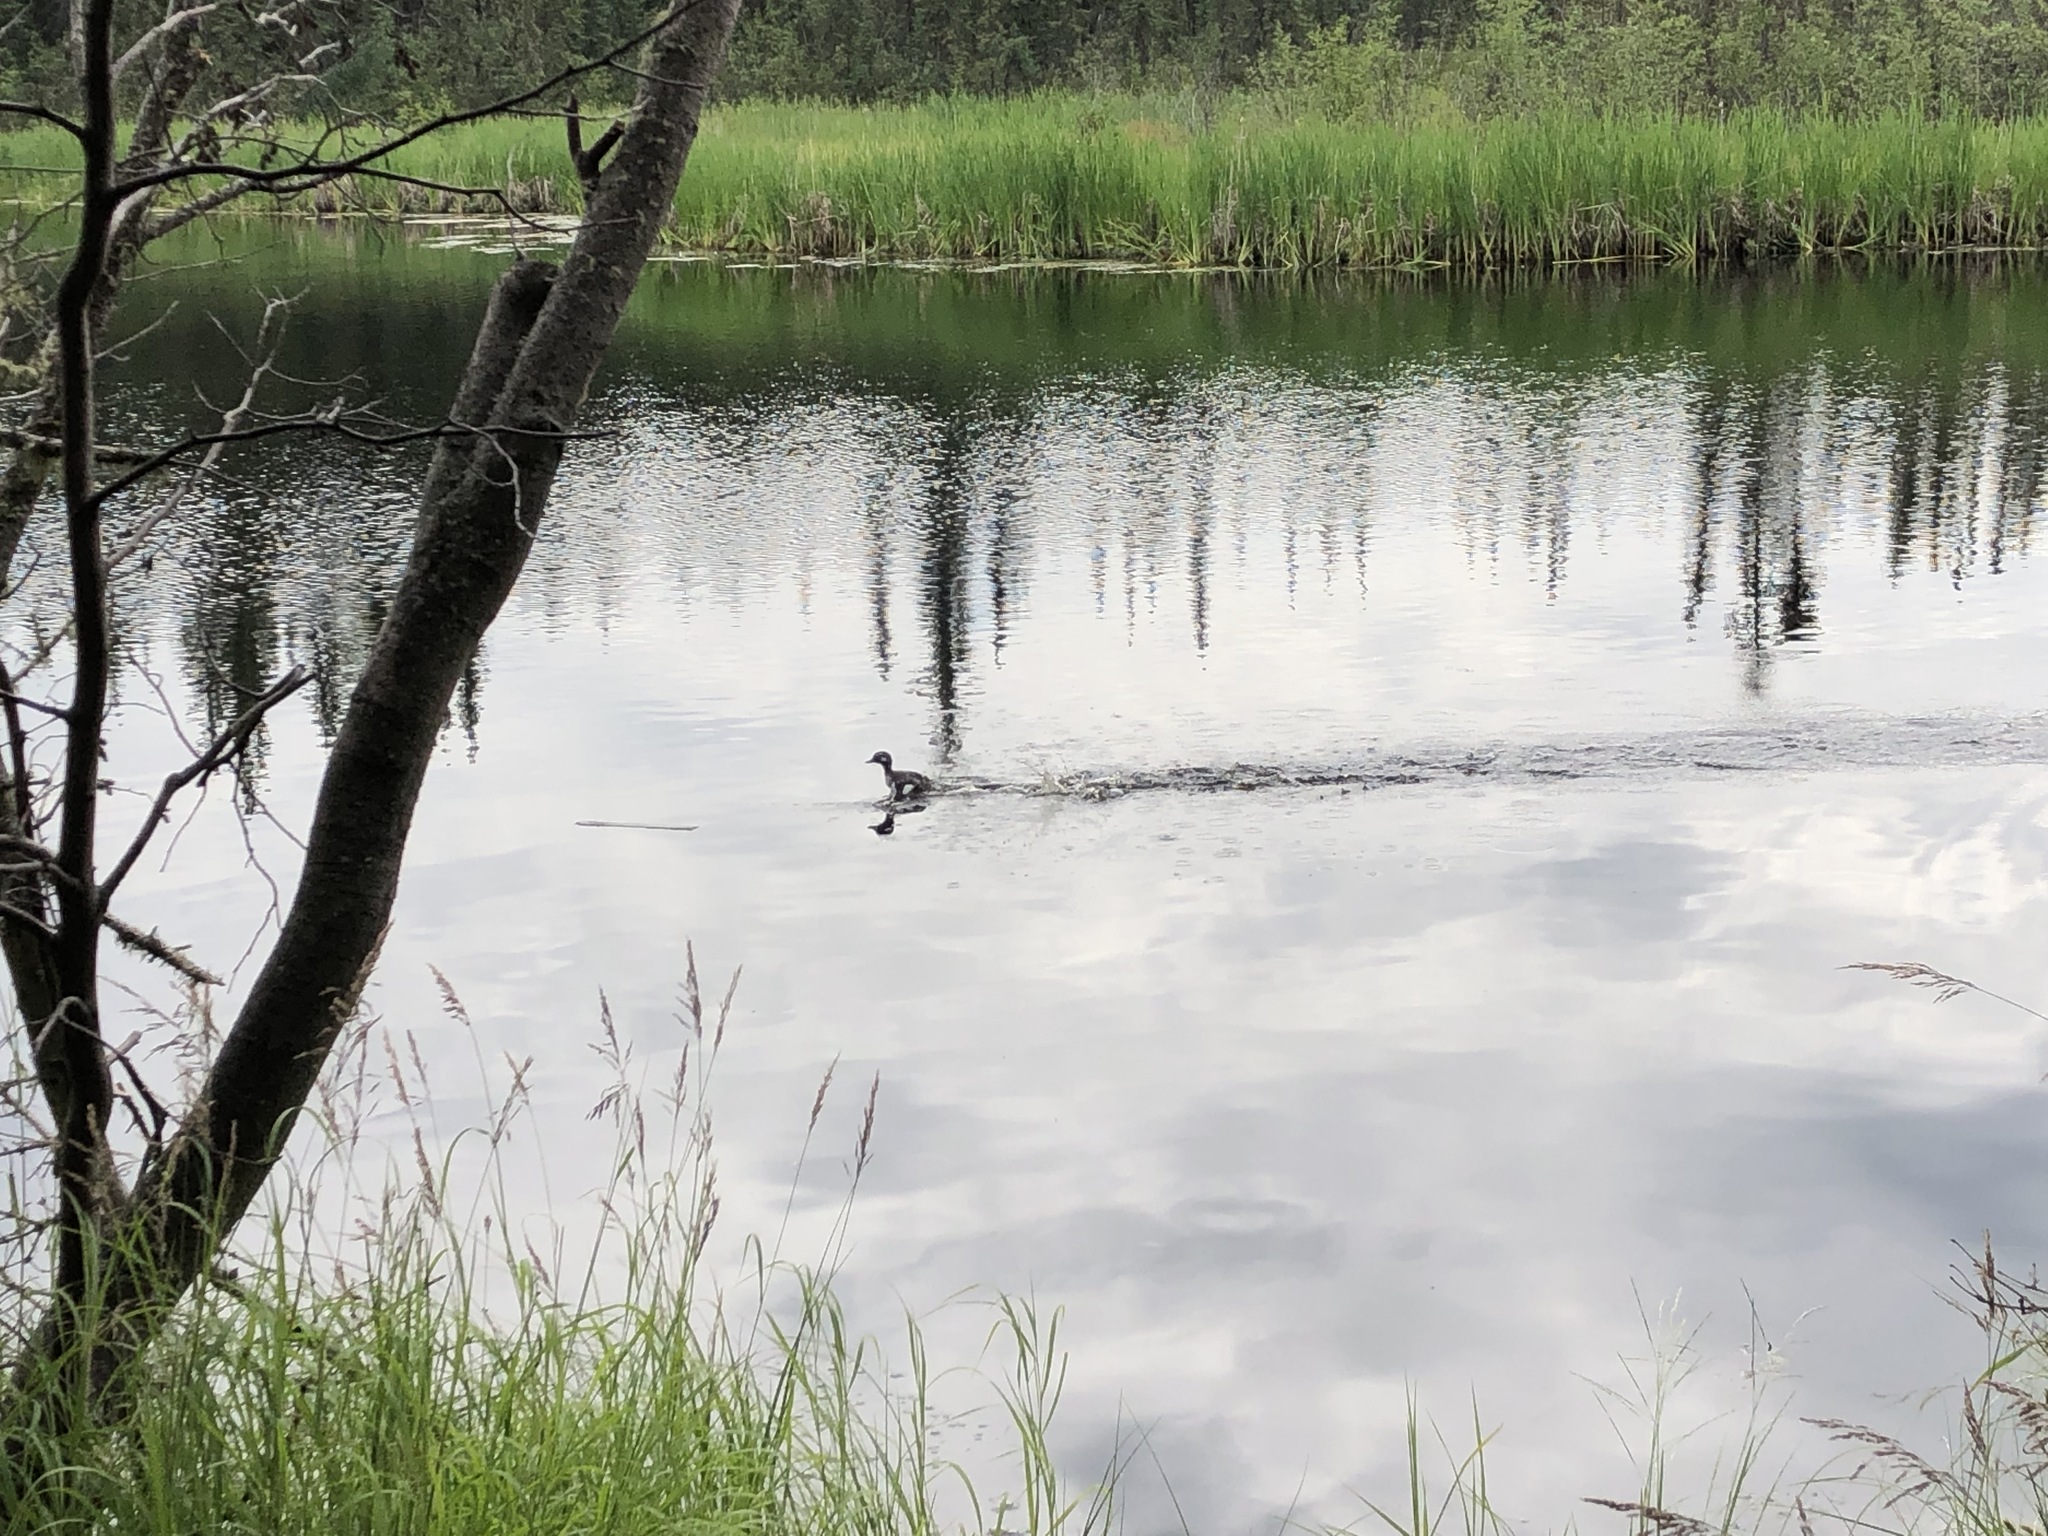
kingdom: Animalia
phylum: Chordata
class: Aves
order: Anseriformes
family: Anatidae
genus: Bucephala
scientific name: Bucephala albeola
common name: Bufflehead
